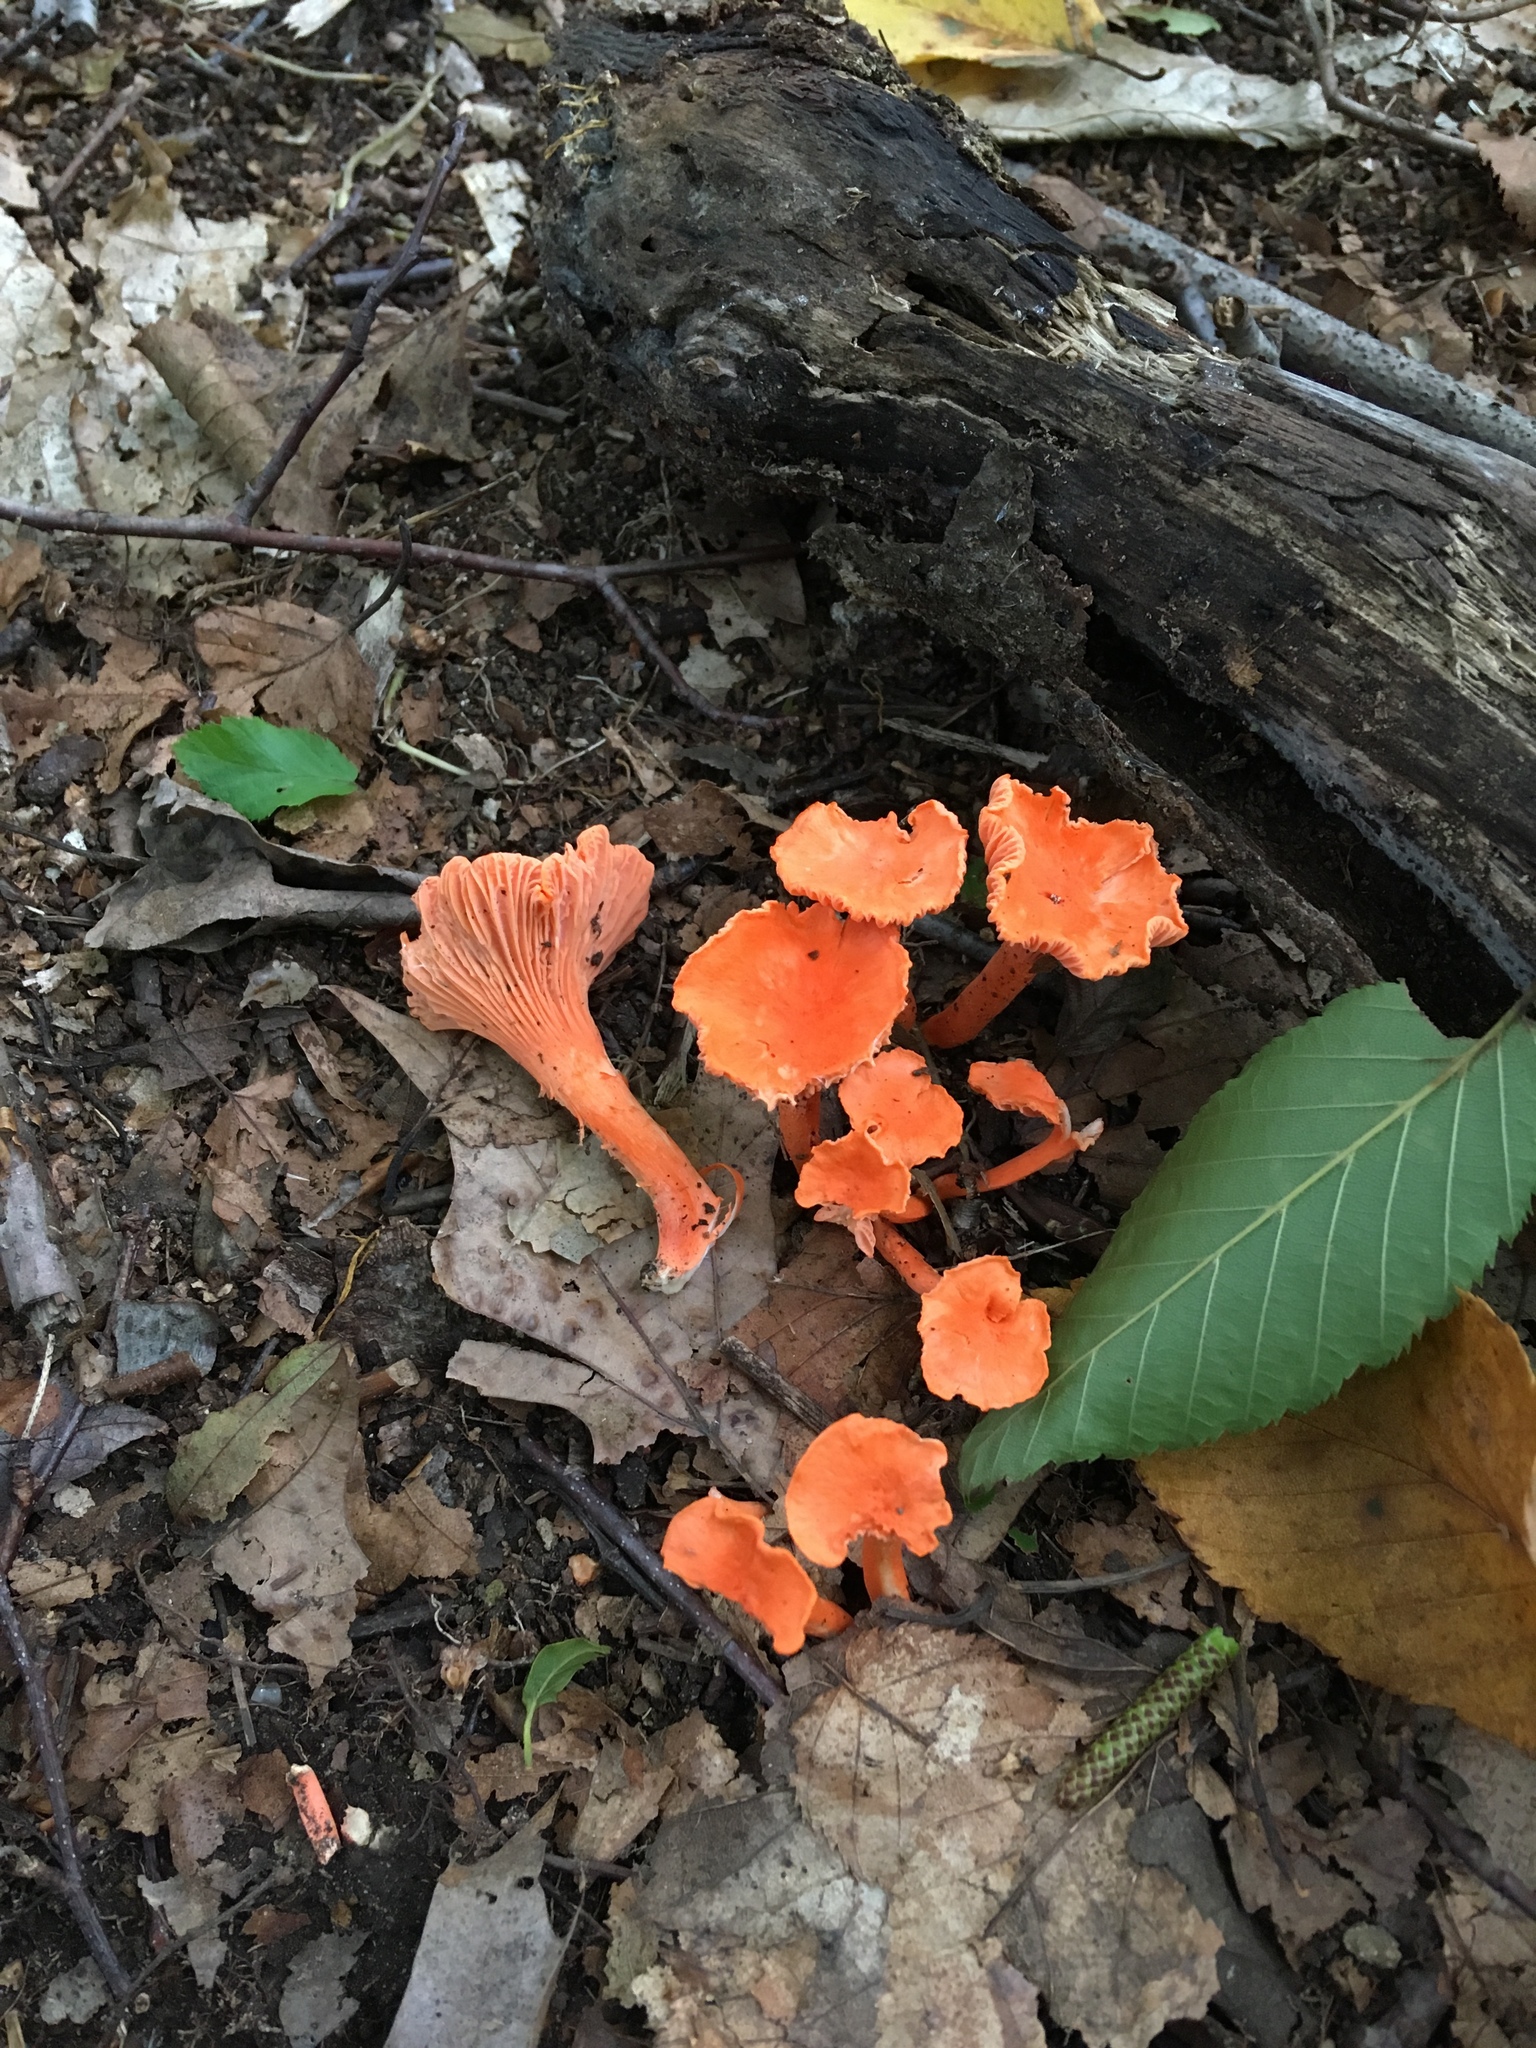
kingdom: Fungi
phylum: Basidiomycota
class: Agaricomycetes
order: Cantharellales
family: Hydnaceae
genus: Cantharellus
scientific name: Cantharellus cinnabarinus
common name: Cinnabar chanterelle
